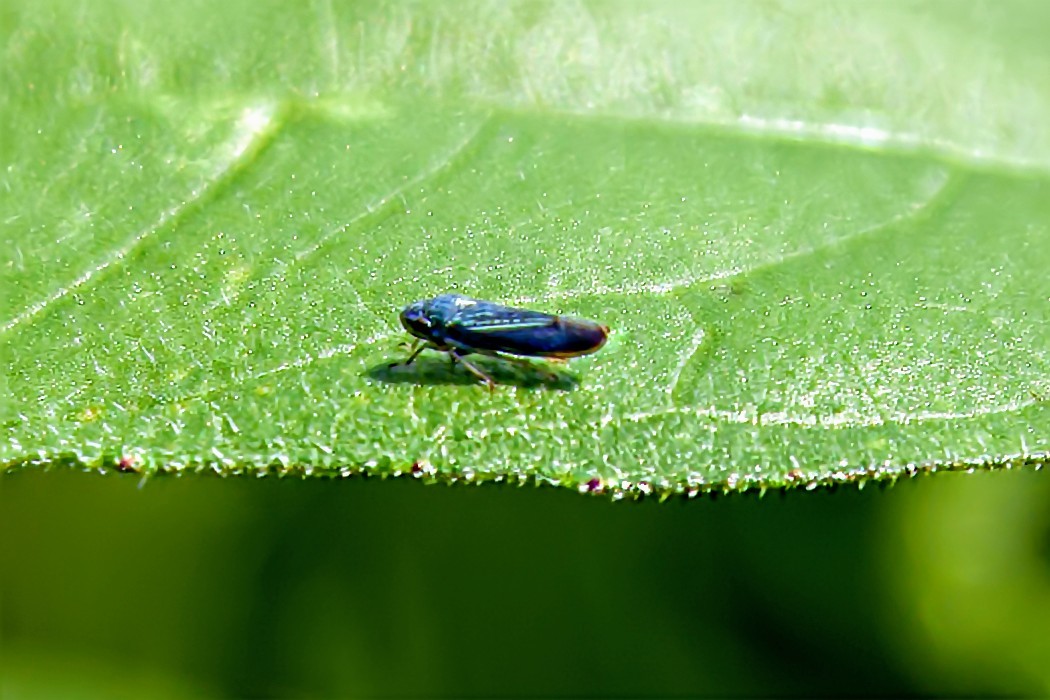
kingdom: Animalia
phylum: Arthropoda
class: Insecta
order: Hemiptera
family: Cicadellidae
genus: Neokolla
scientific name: Neokolla hieroglyphica
